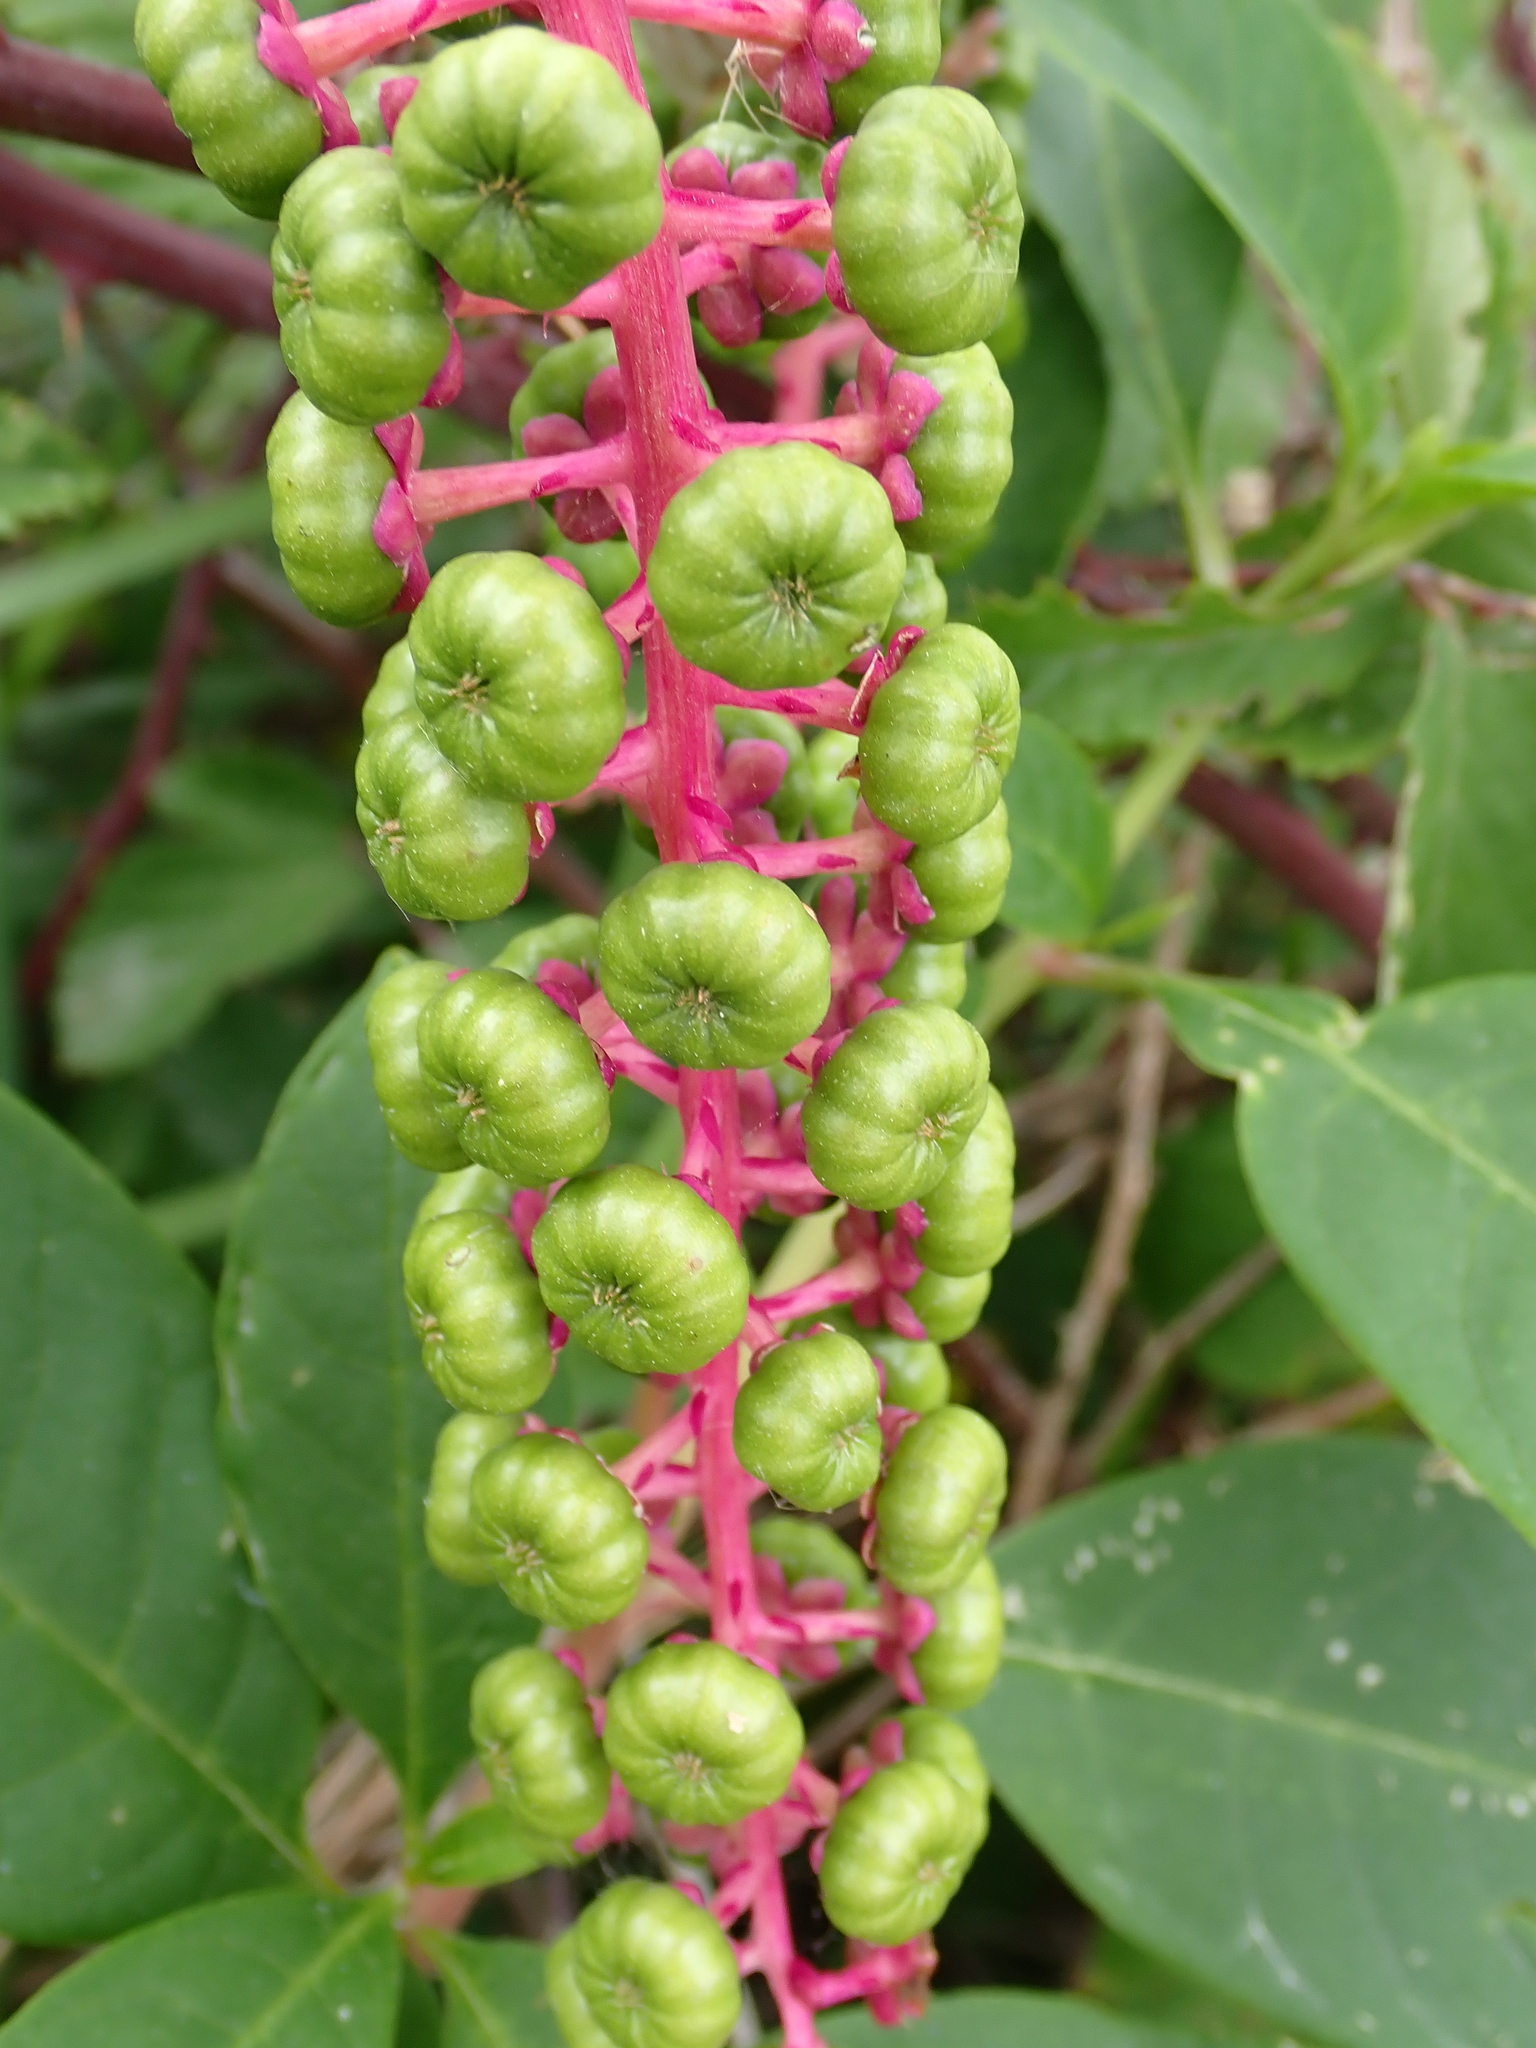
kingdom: Plantae
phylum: Tracheophyta
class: Magnoliopsida
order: Caryophyllales
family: Phytolaccaceae
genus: Phytolacca
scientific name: Phytolacca americana
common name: American pokeweed
